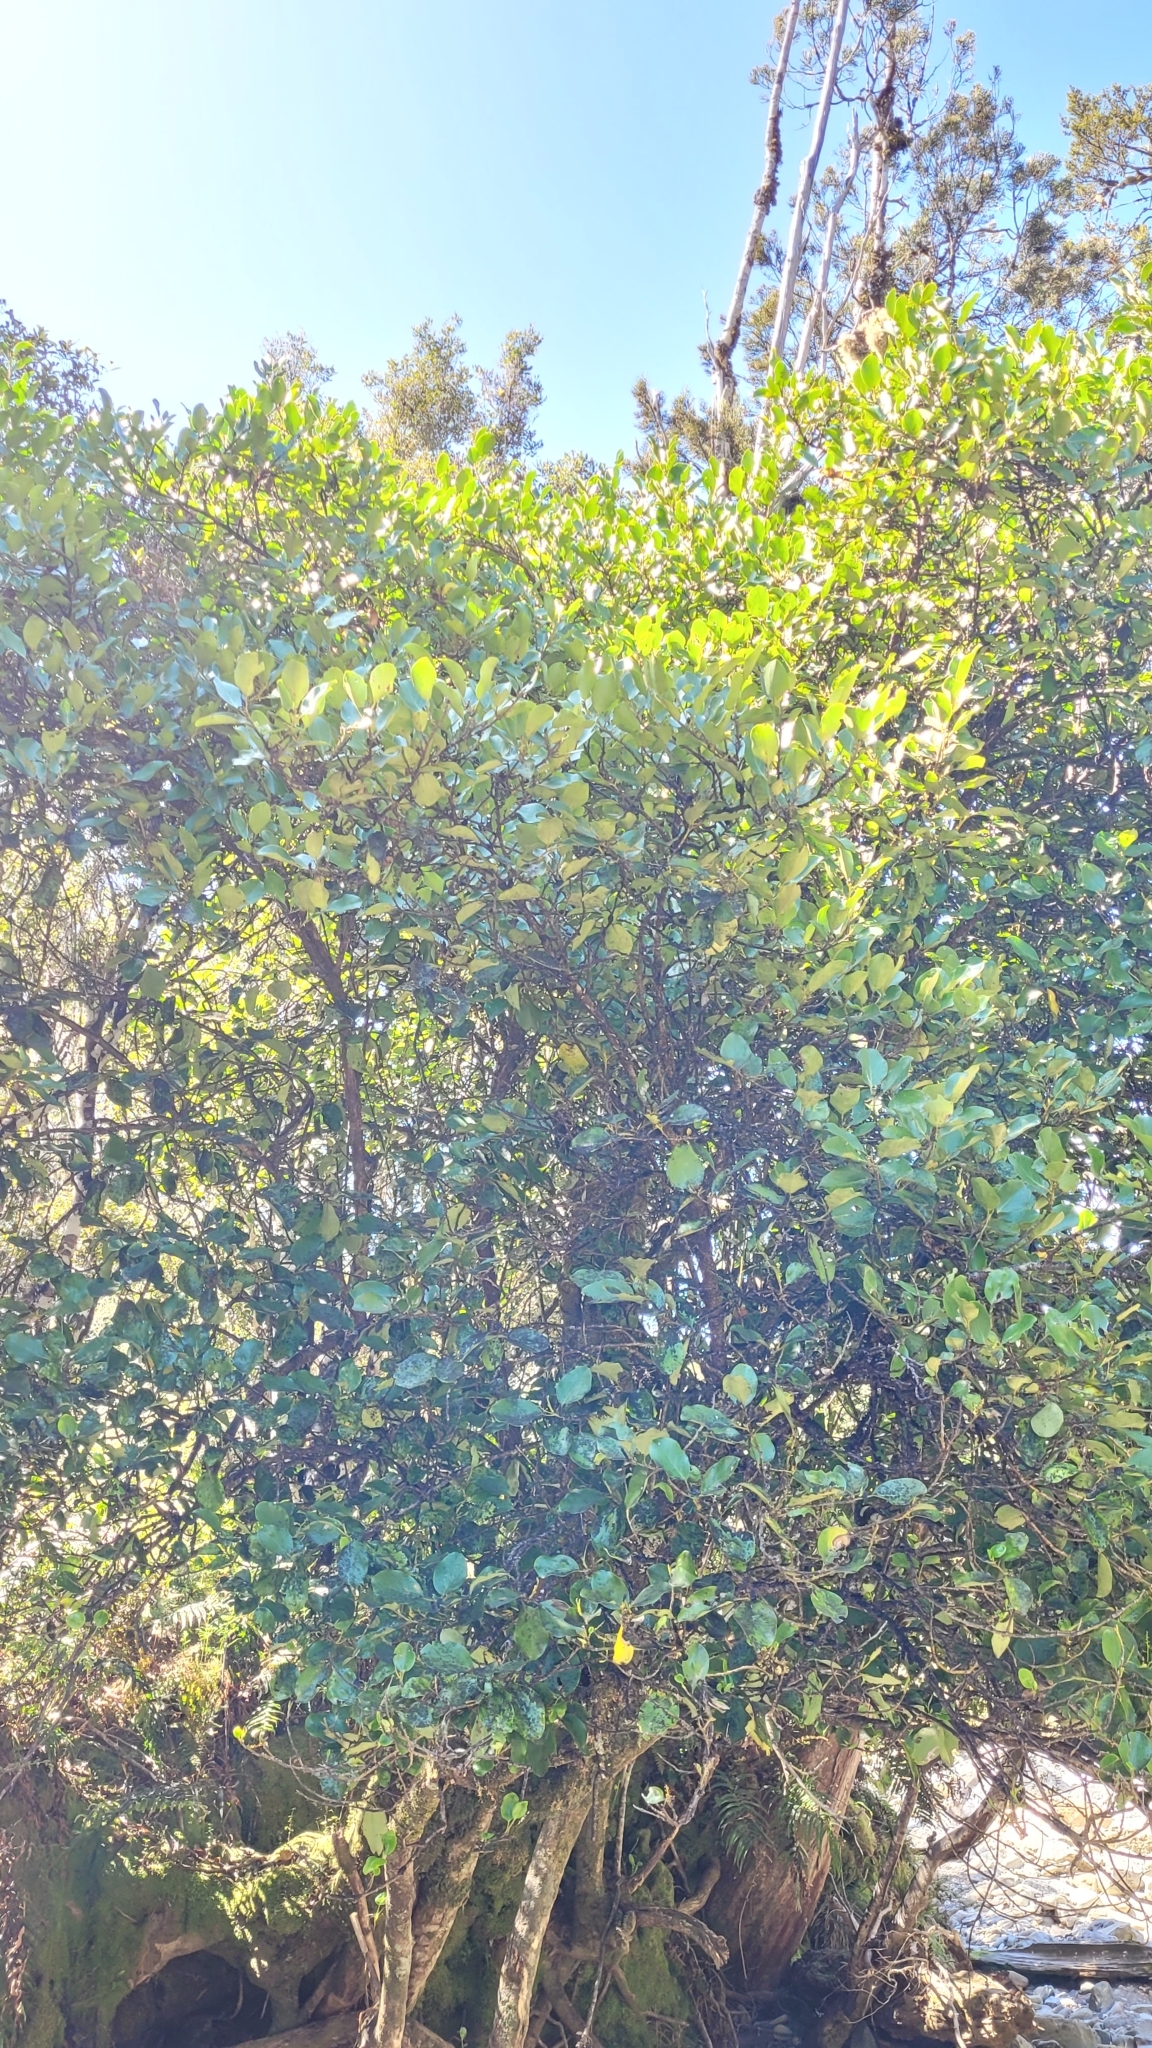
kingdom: Plantae
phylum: Tracheophyta
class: Magnoliopsida
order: Apiales
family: Griseliniaceae
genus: Griselinia
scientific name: Griselinia littoralis
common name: New zealand broadleaf
